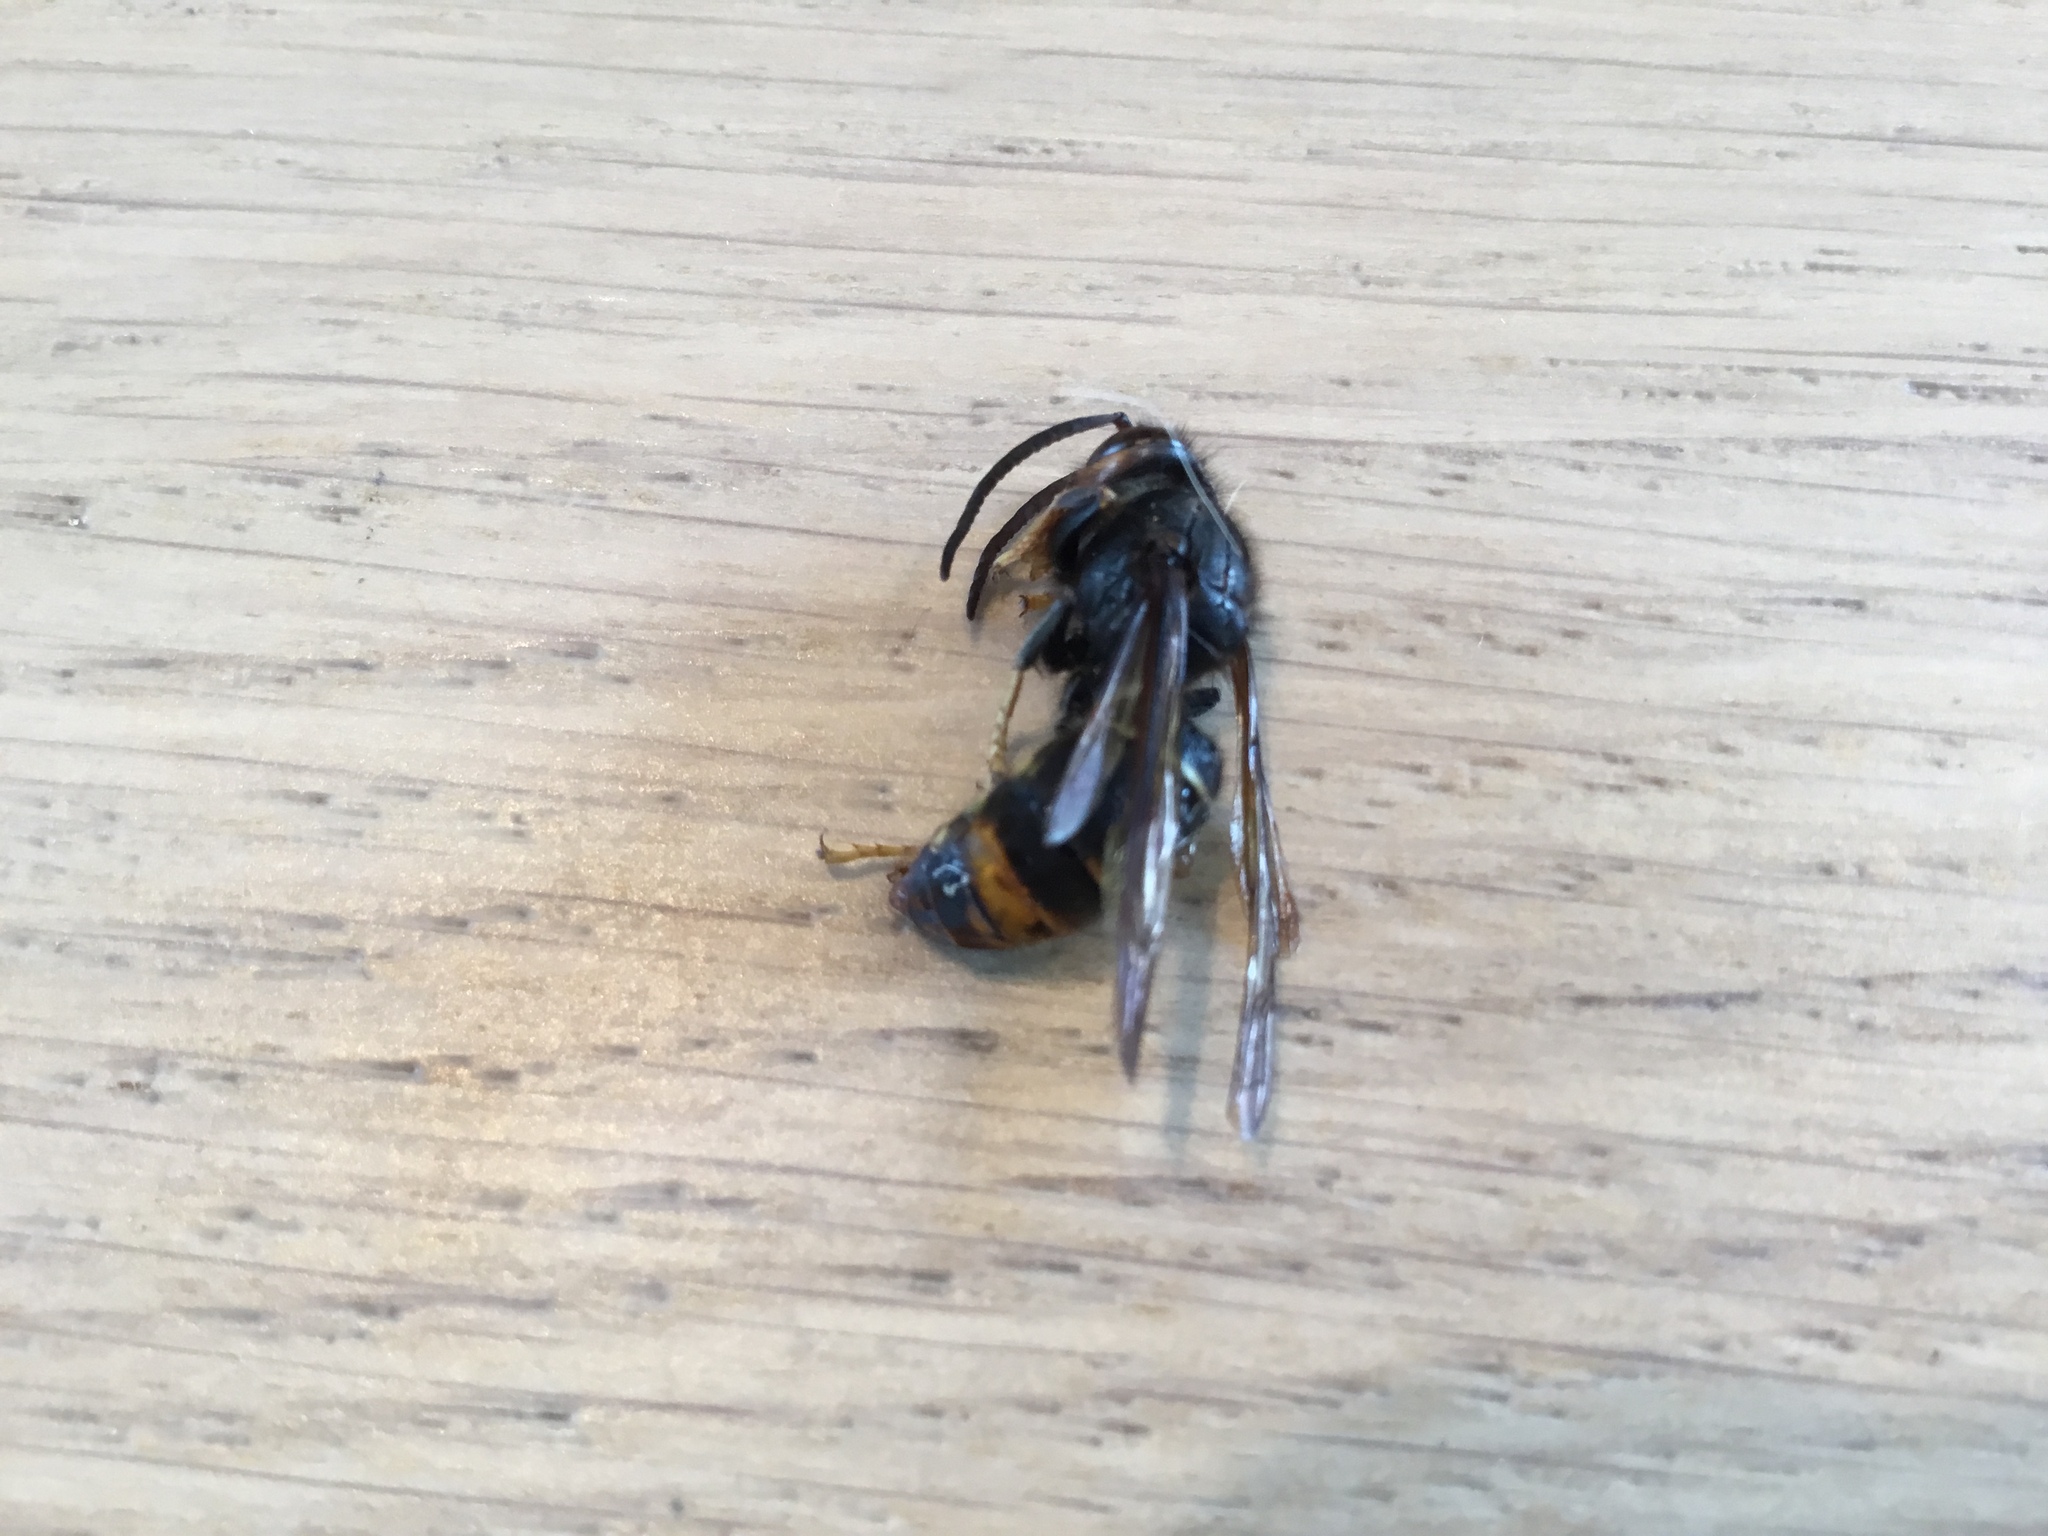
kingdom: Animalia
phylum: Arthropoda
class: Insecta
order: Hymenoptera
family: Vespidae
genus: Vespa
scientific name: Vespa velutina
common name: Asian hornet
